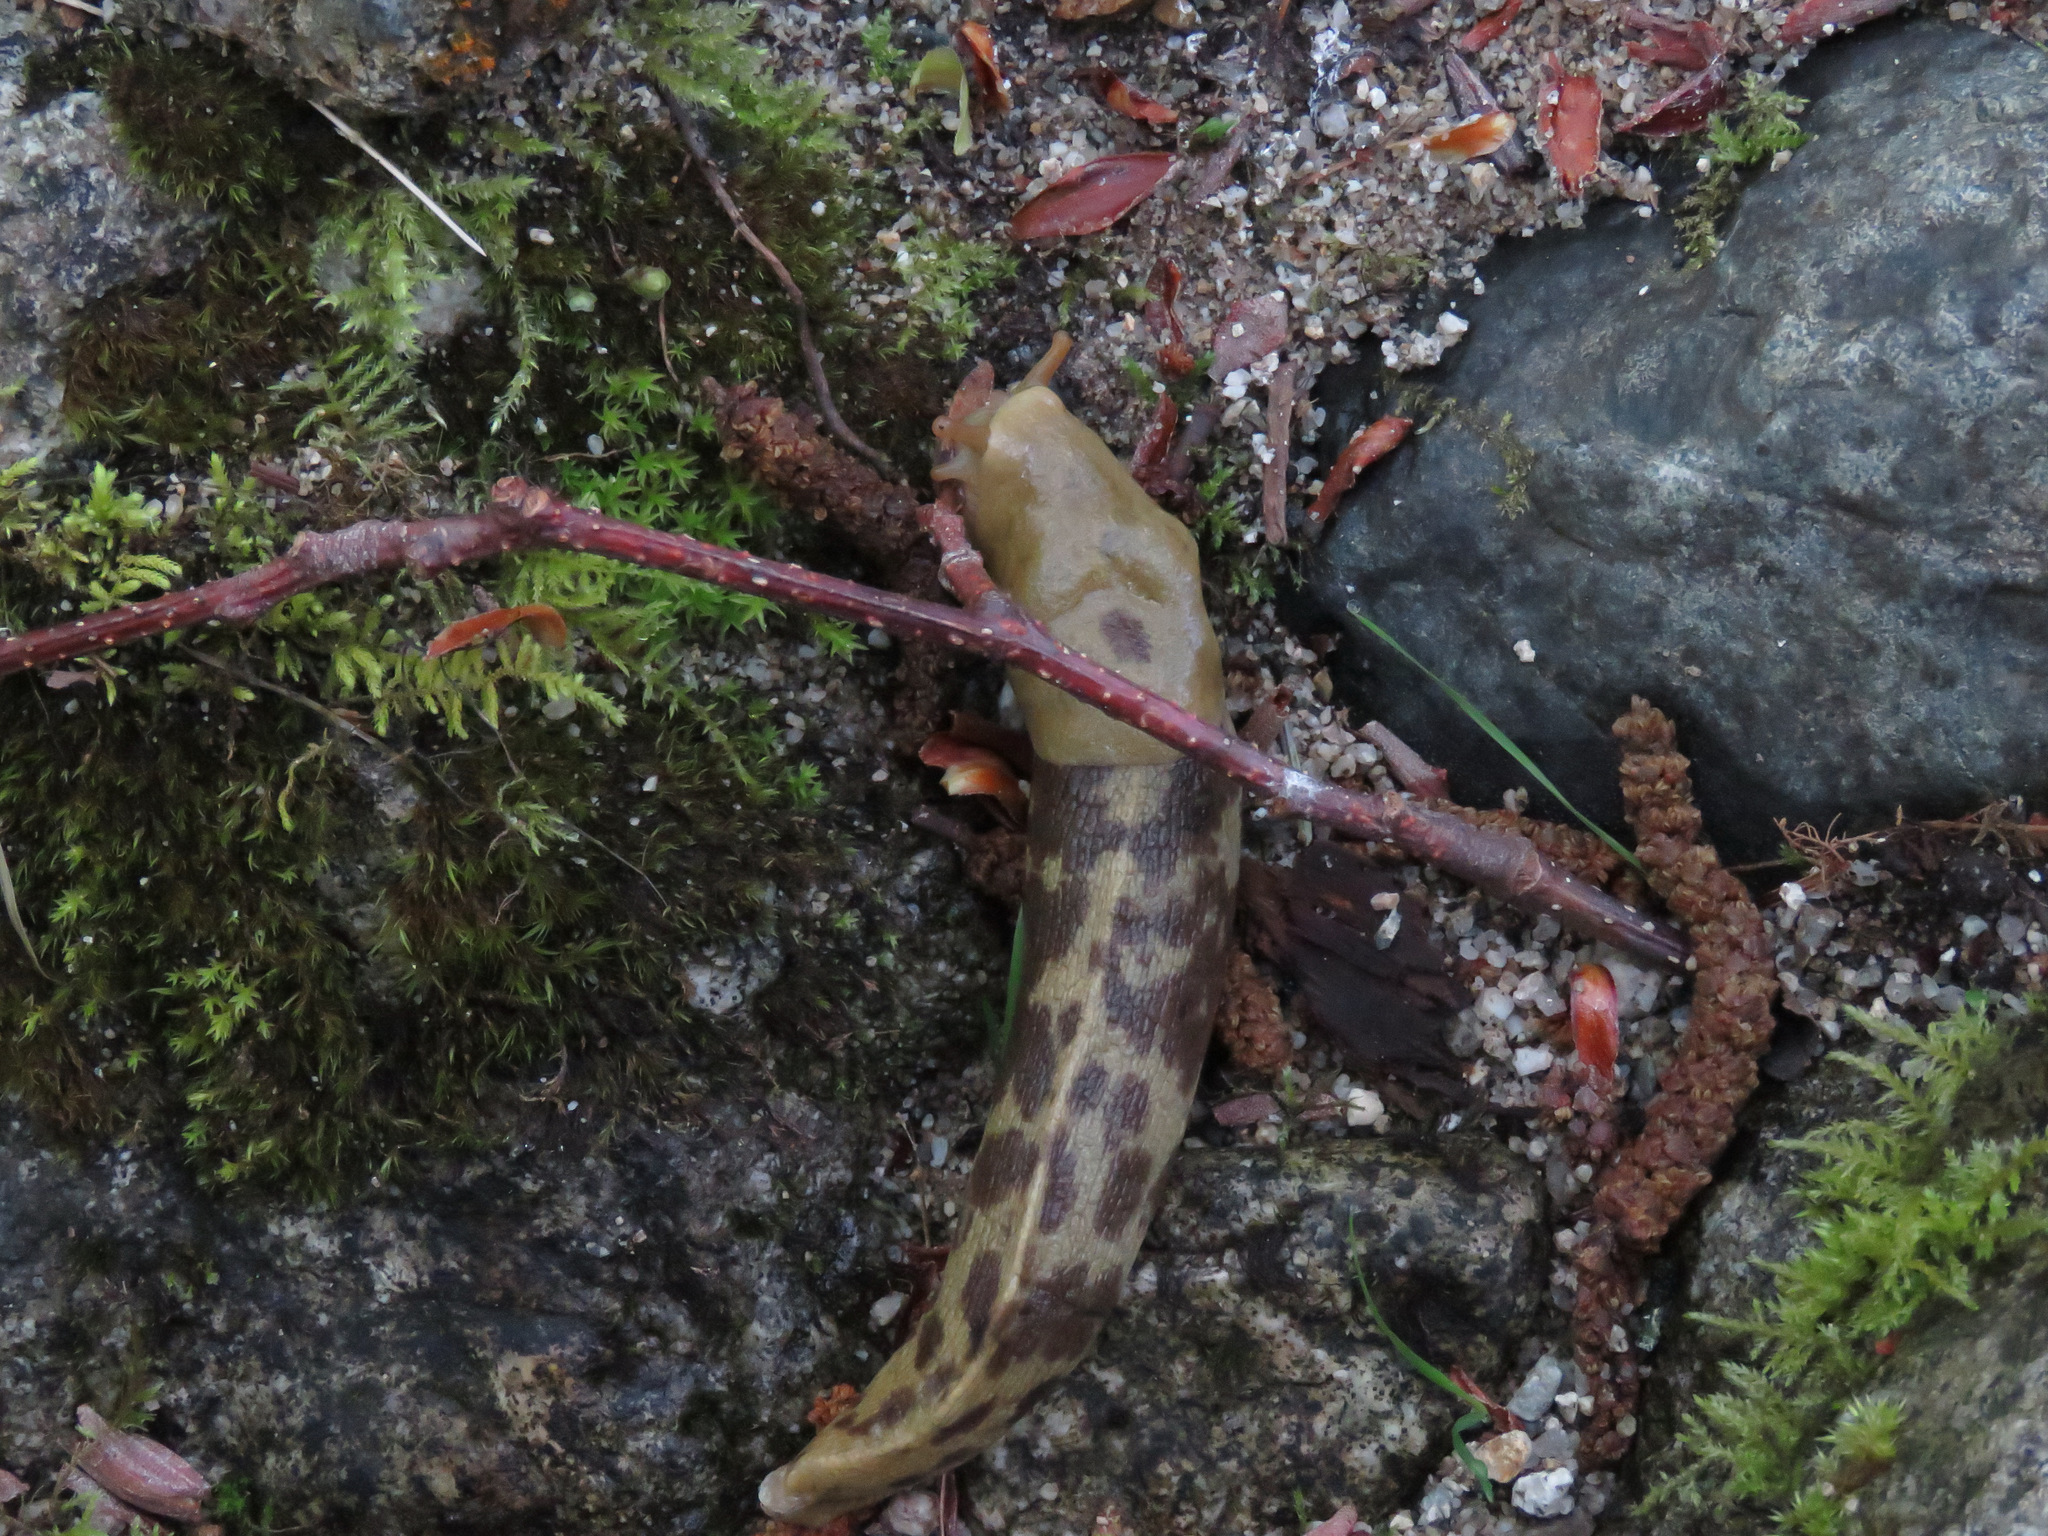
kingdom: Animalia
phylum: Mollusca
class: Gastropoda
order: Stylommatophora
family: Ariolimacidae
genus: Ariolimax
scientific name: Ariolimax columbianus
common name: Pacific banana slug
